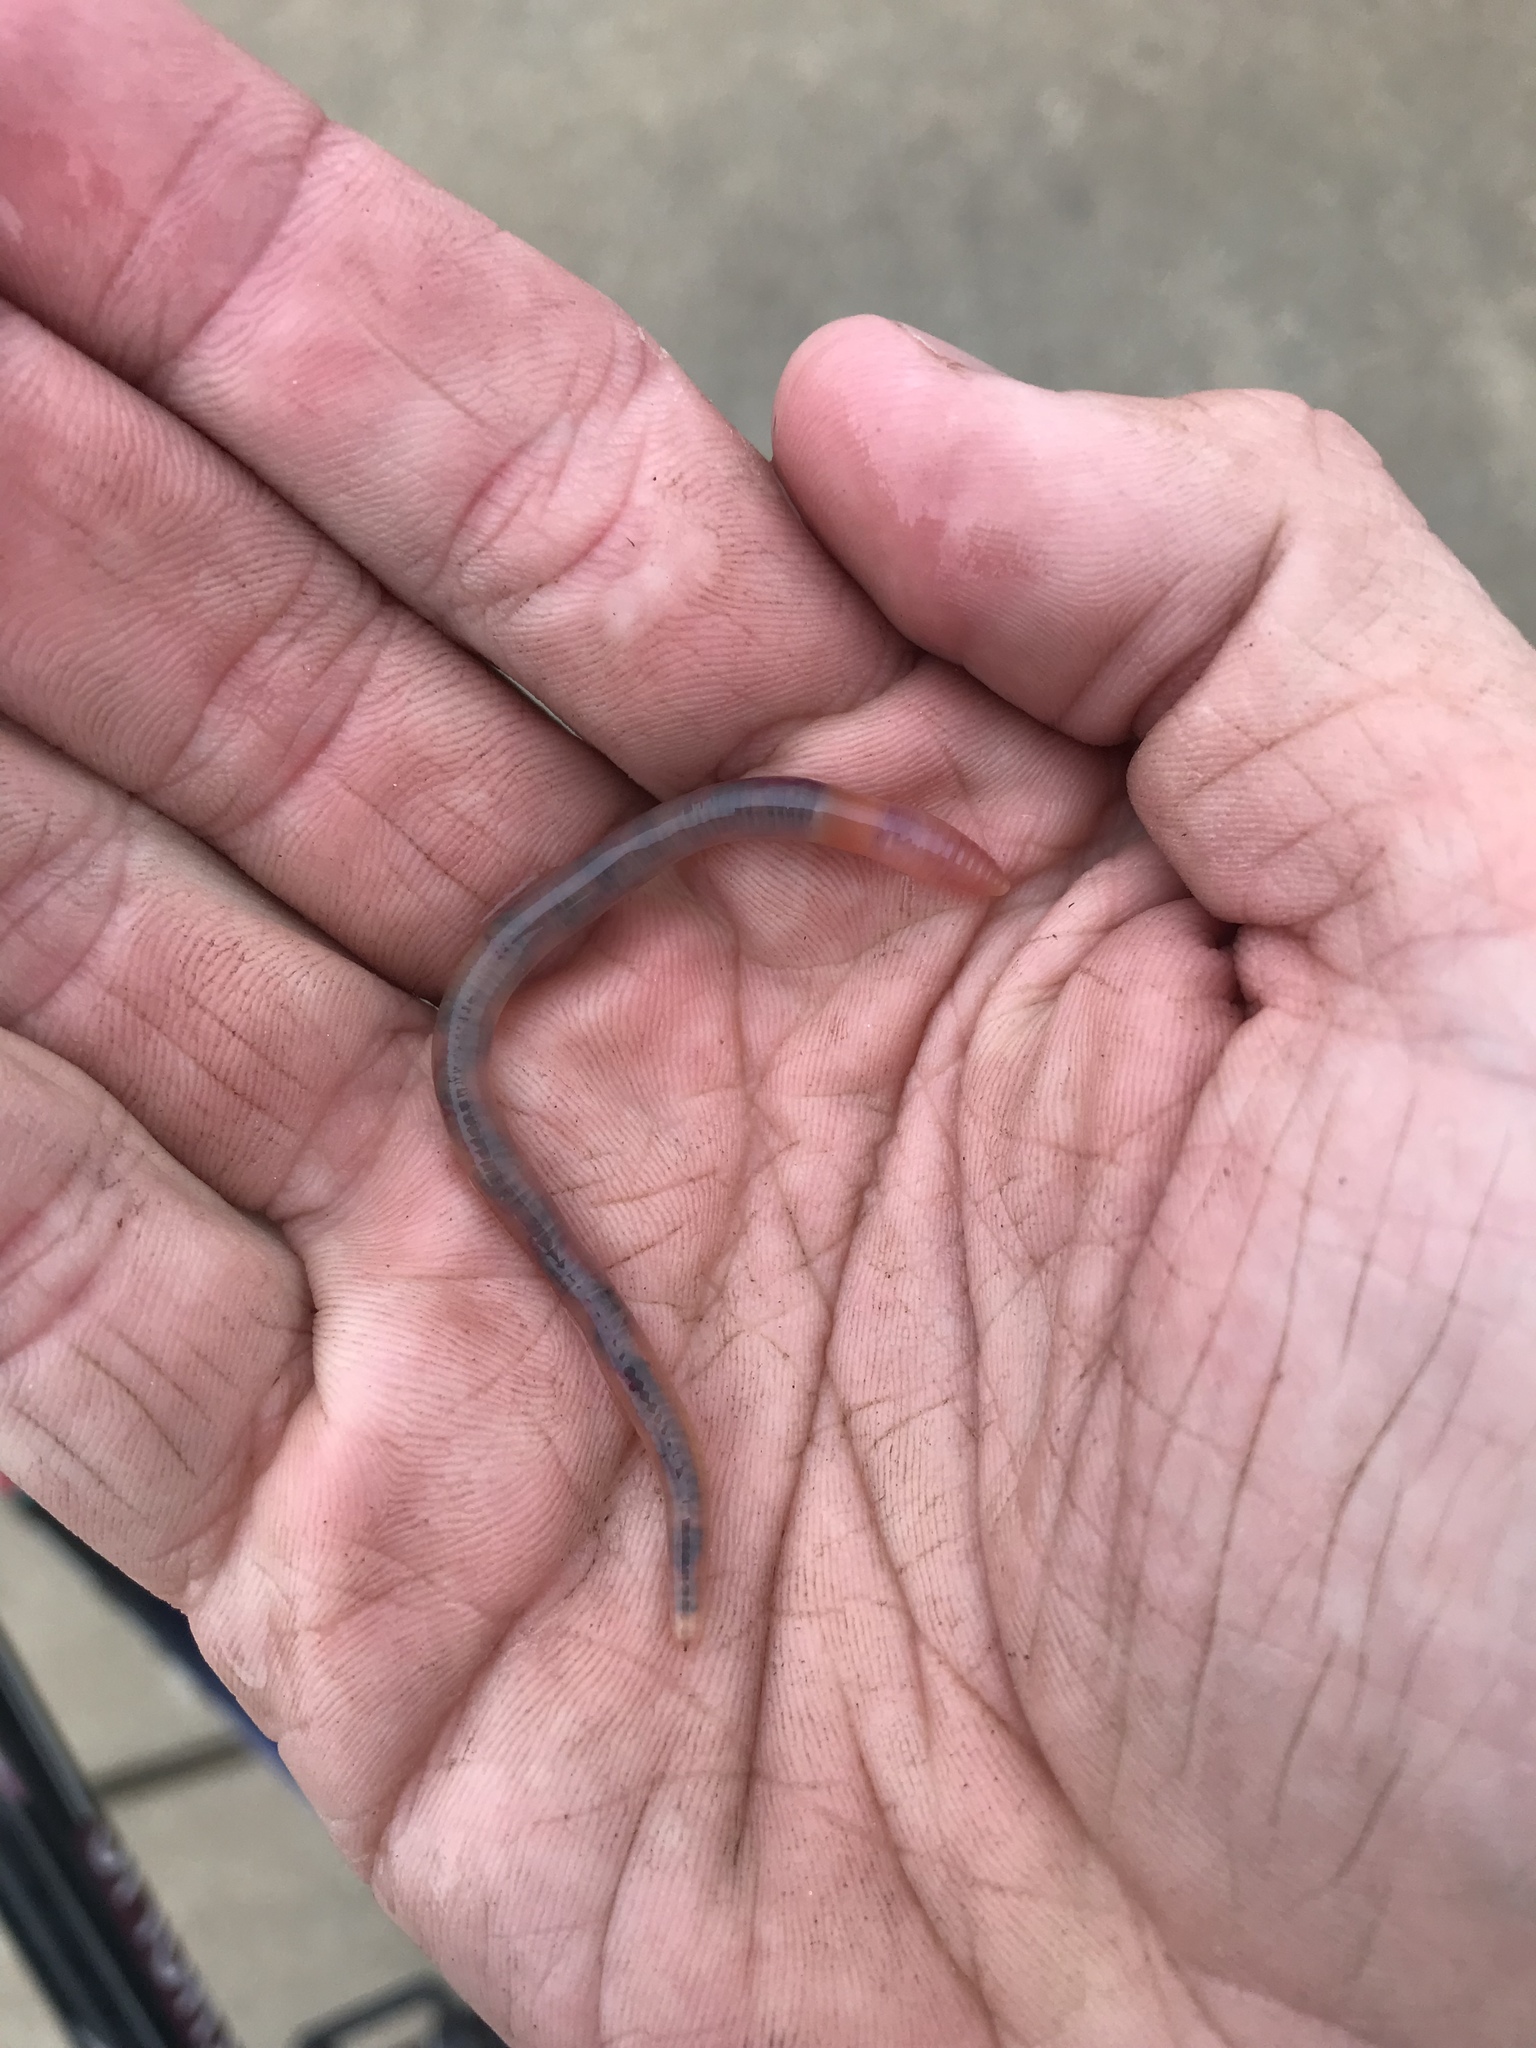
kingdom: Animalia
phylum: Annelida
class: Clitellata
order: Crassiclitellata
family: Lumbricidae
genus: Lumbricus
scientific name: Lumbricus terrestris
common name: Common earthworm
